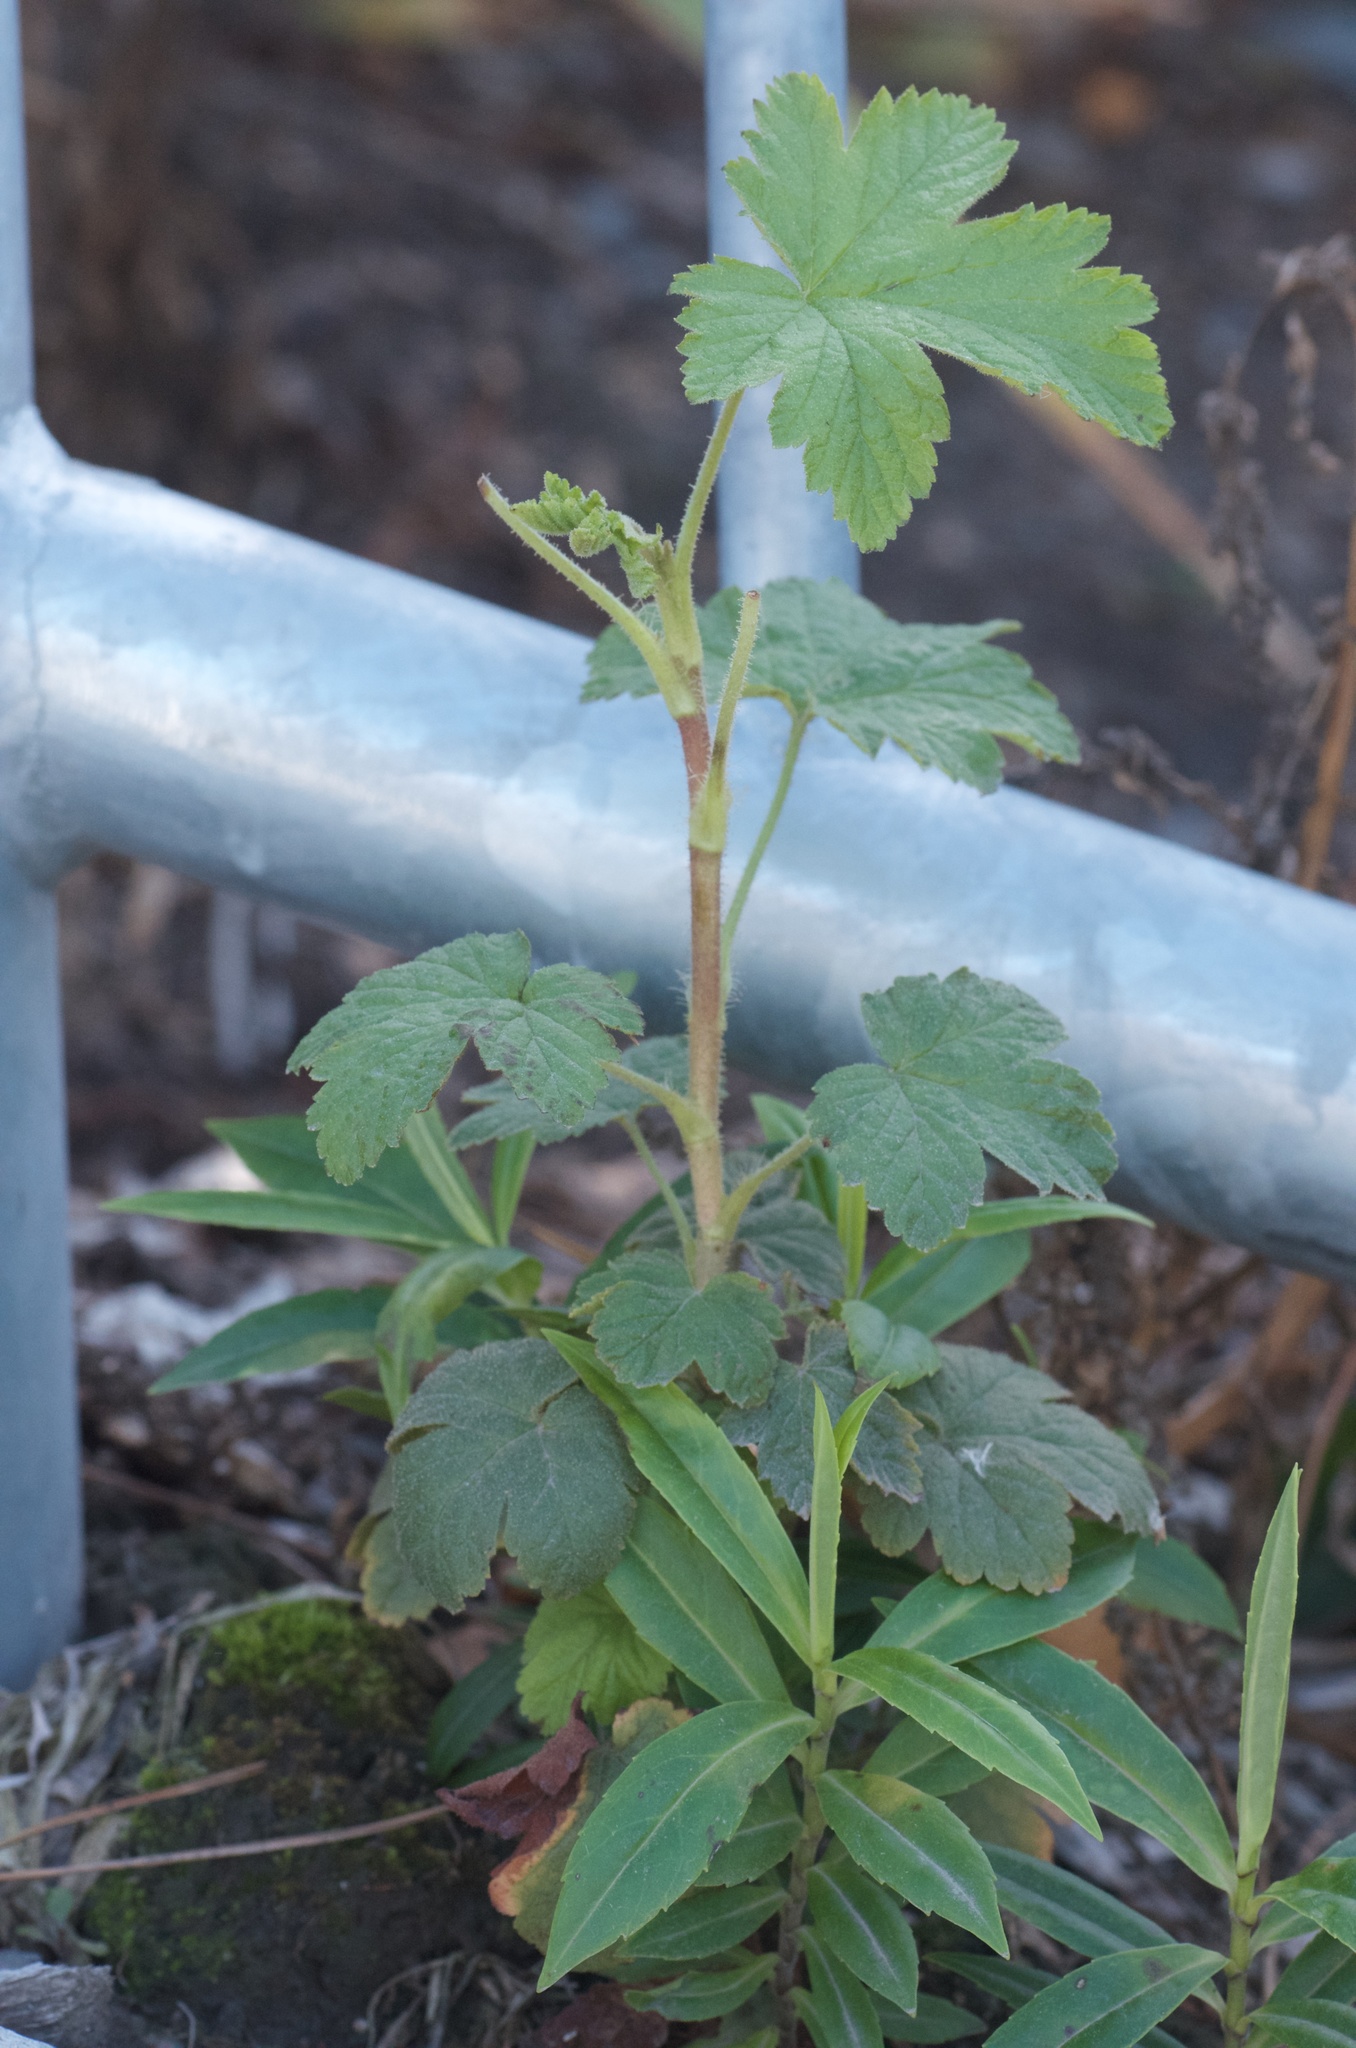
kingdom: Plantae
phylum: Tracheophyta
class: Magnoliopsida
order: Saxifragales
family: Grossulariaceae
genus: Ribes
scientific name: Ribes sanguineum
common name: Flowering currant
